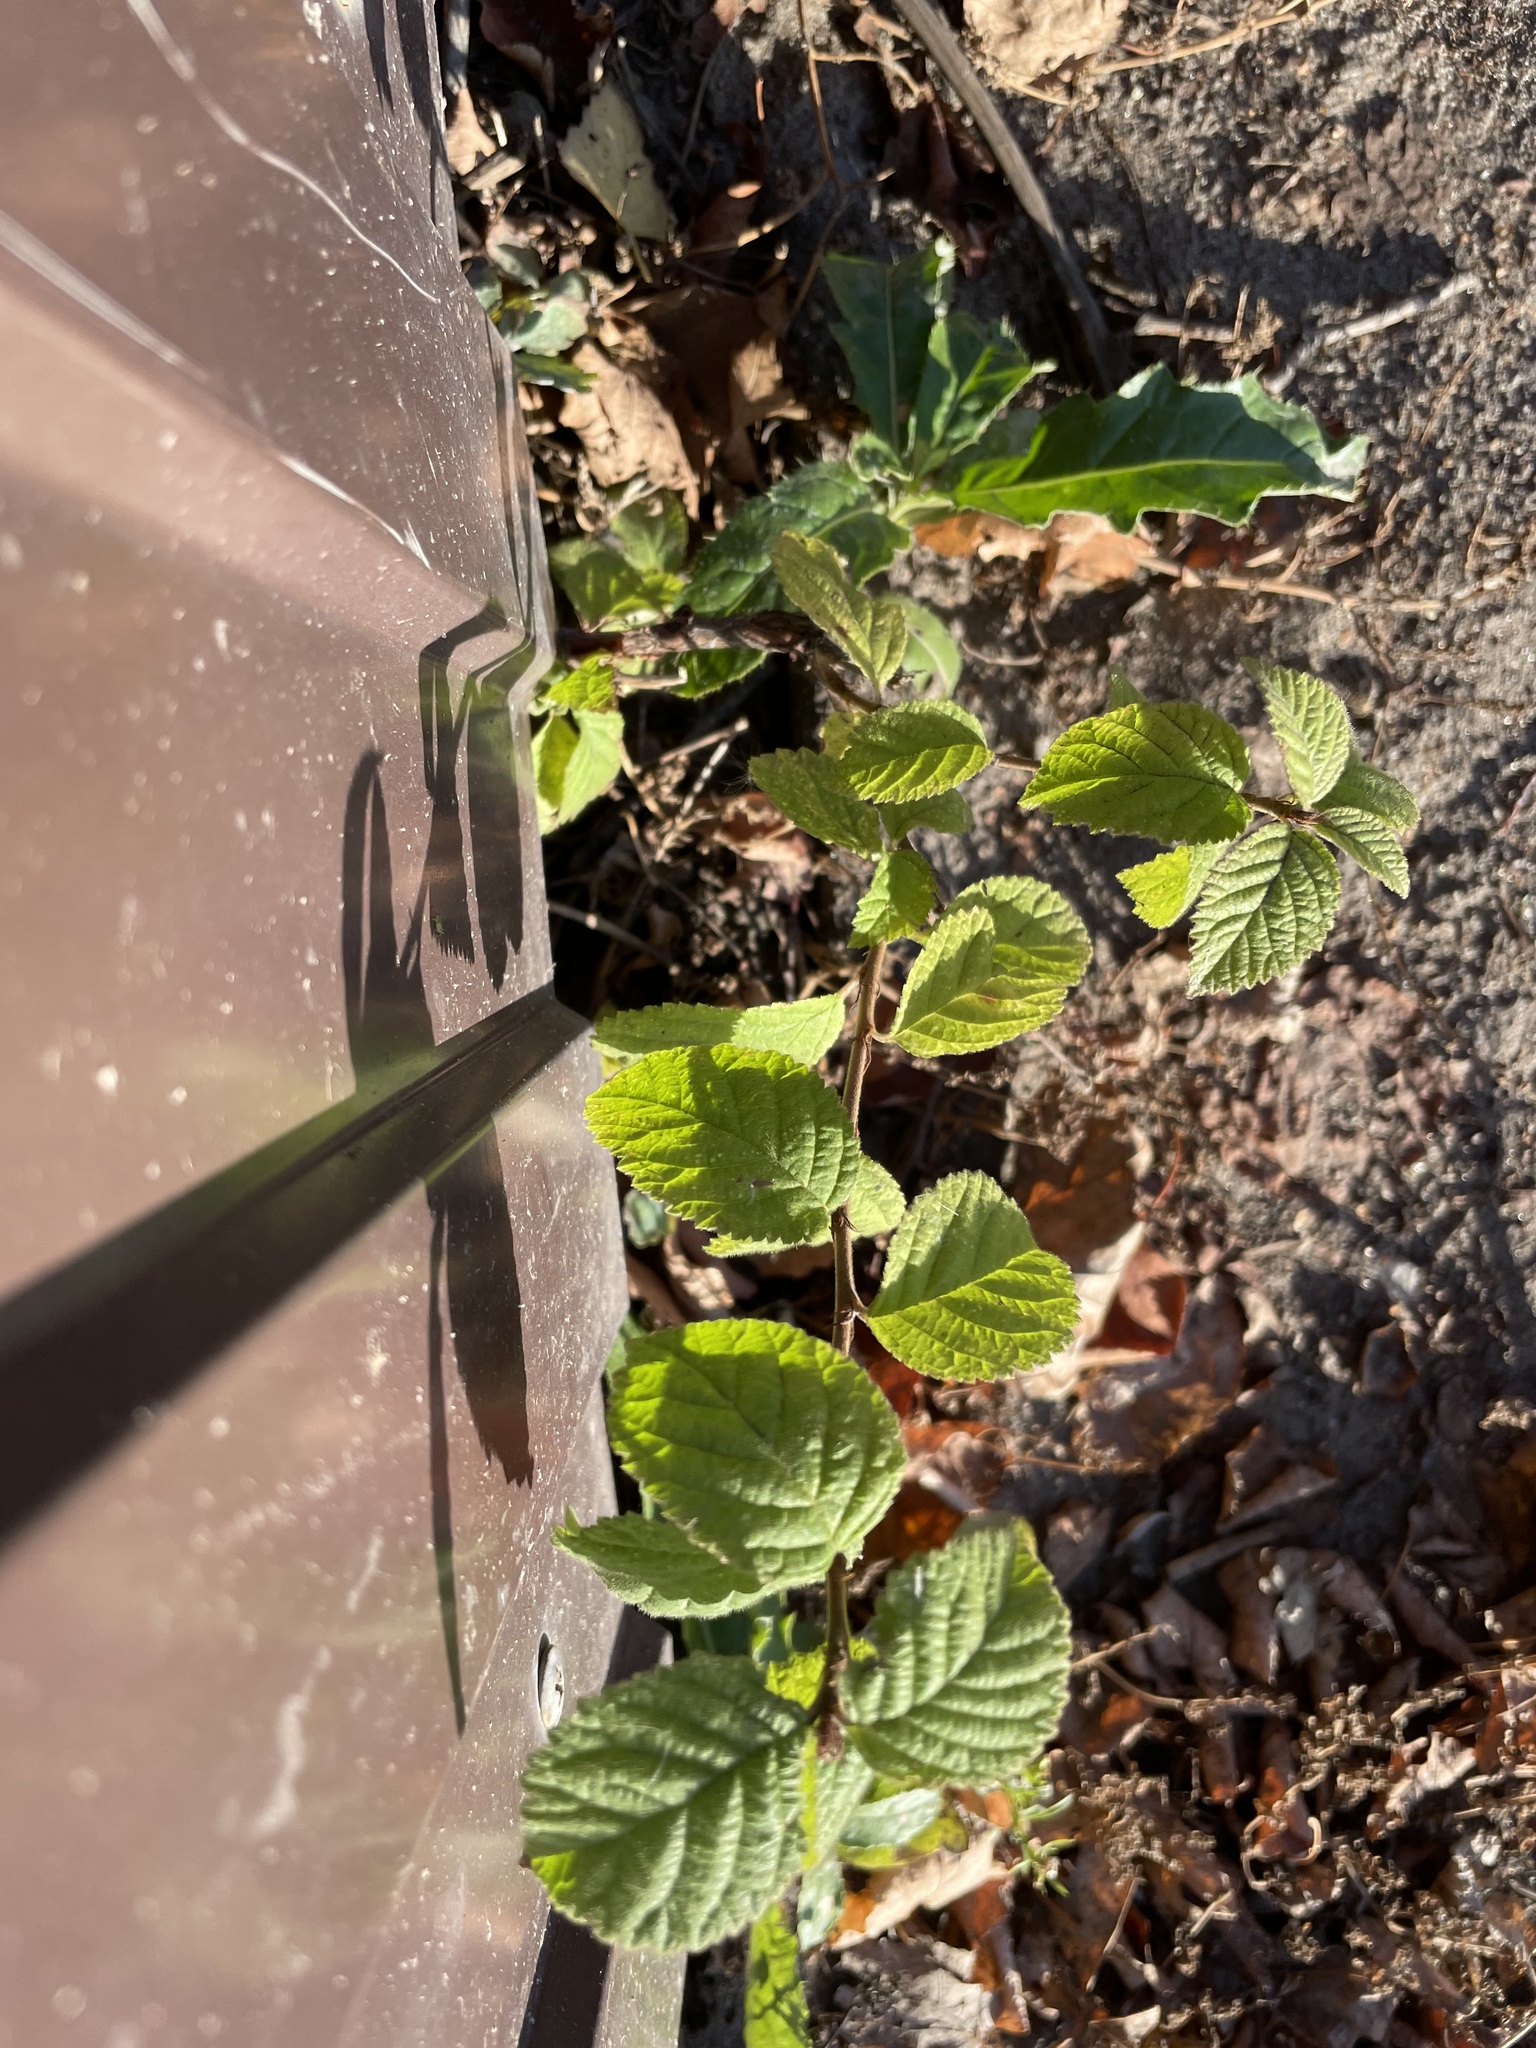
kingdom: Plantae
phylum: Tracheophyta
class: Magnoliopsida
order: Rosales
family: Rosaceae
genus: Prunus
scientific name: Prunus tomentosa
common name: Nanking cherry
